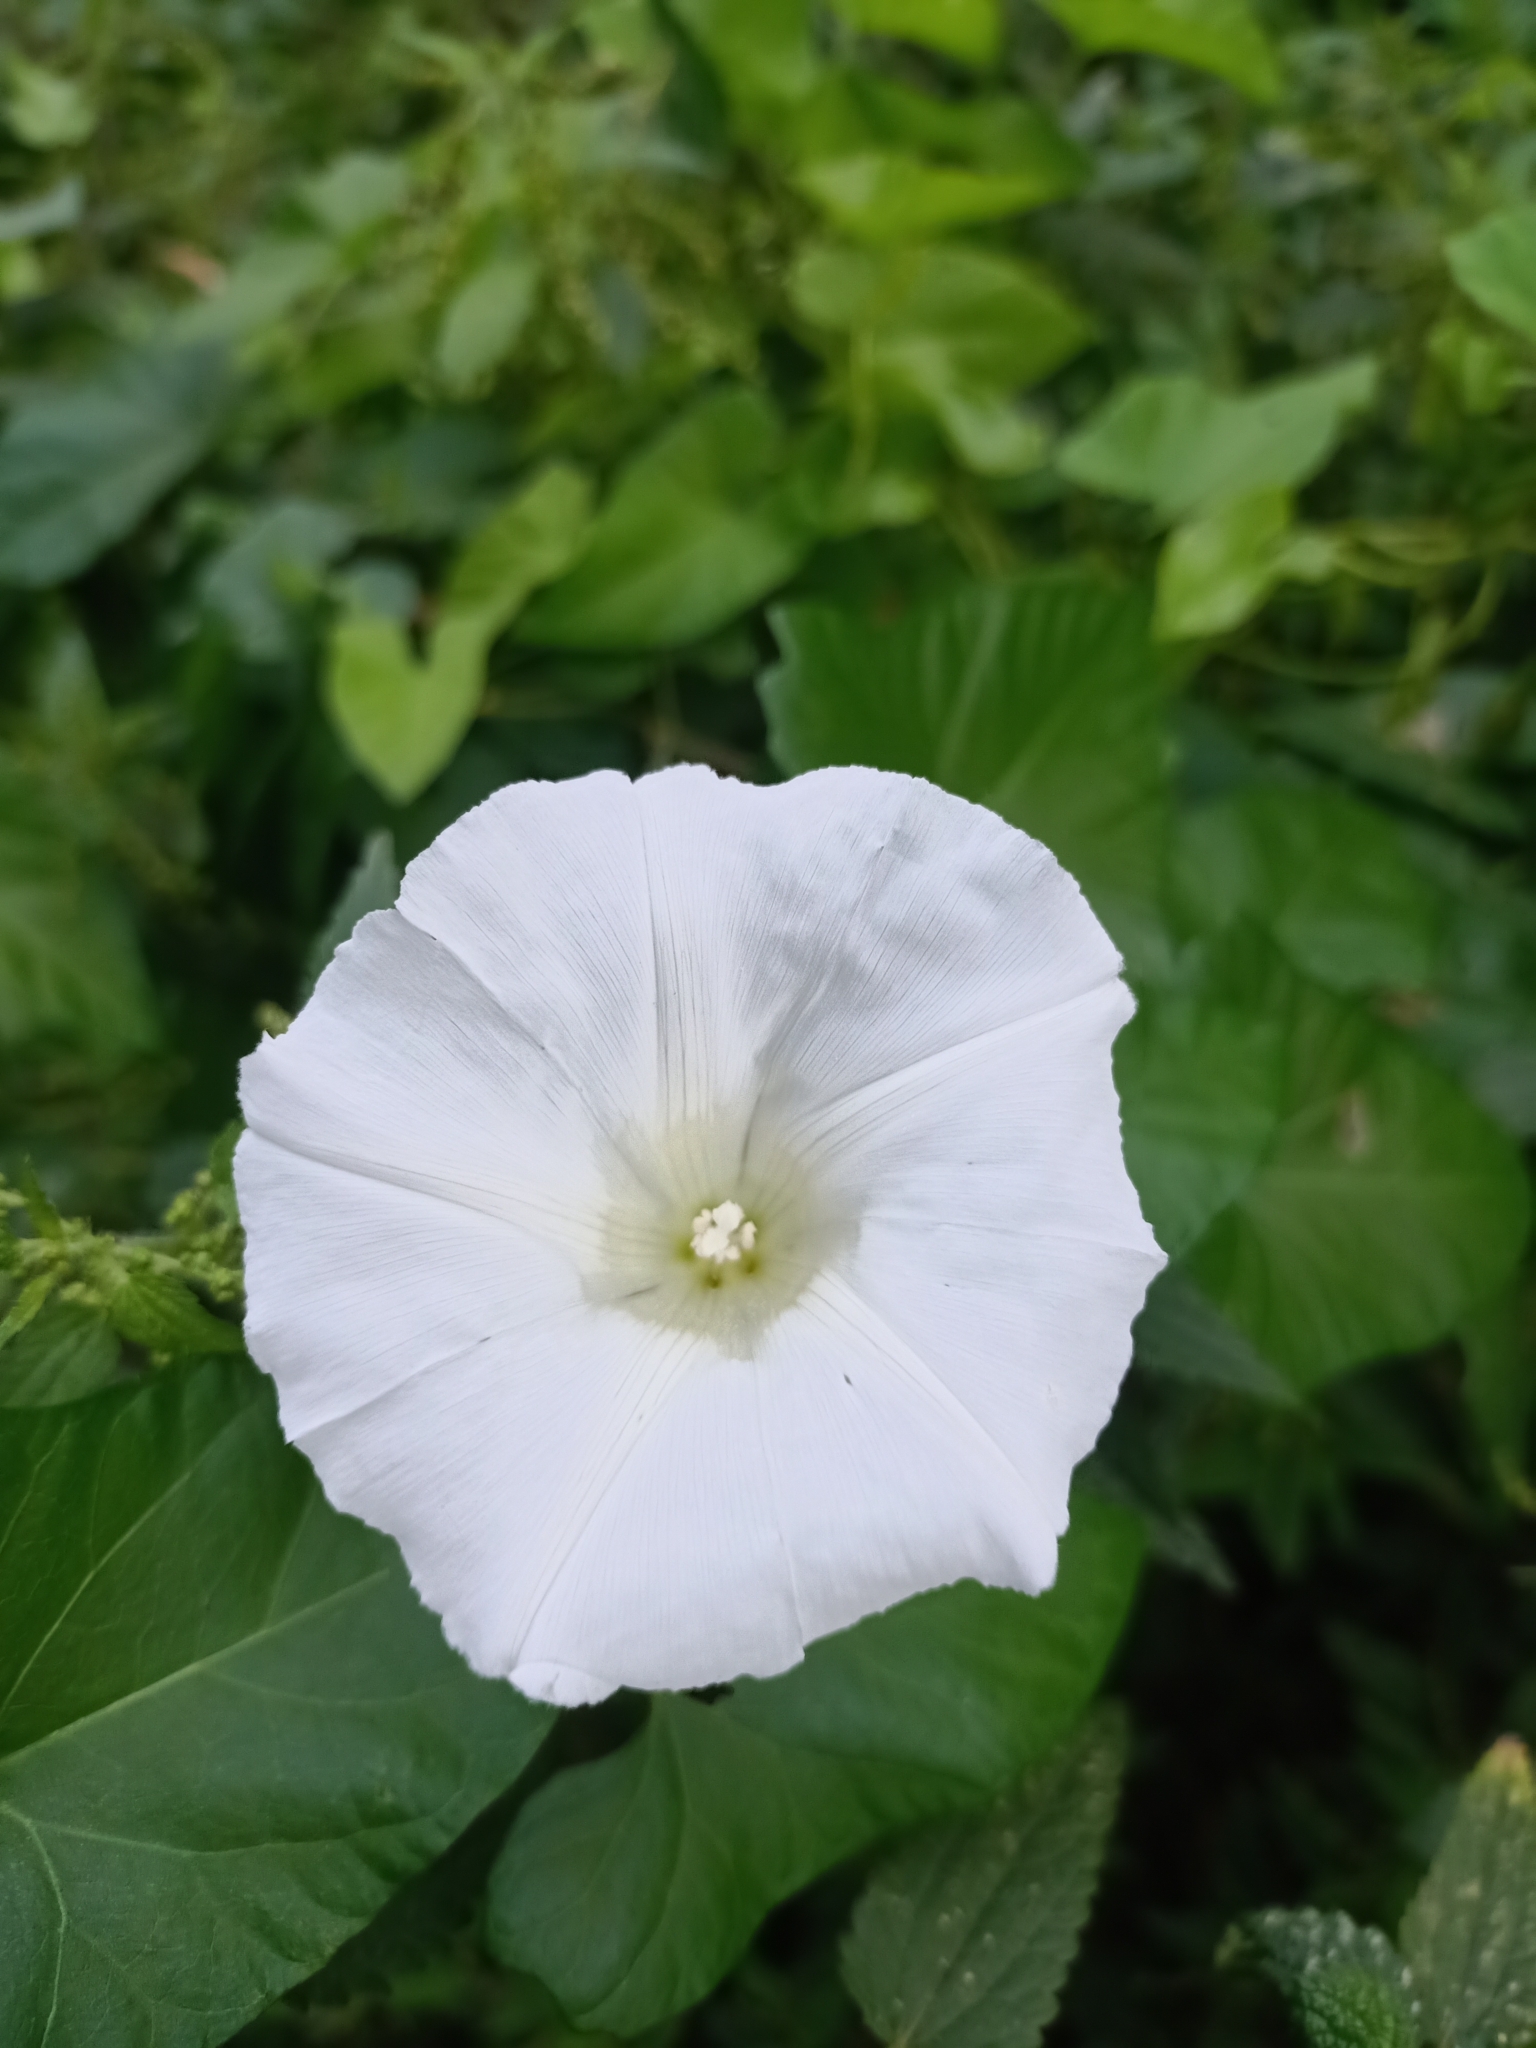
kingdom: Plantae
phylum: Tracheophyta
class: Magnoliopsida
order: Solanales
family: Convolvulaceae
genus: Calystegia
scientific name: Calystegia sepium
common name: Hedge bindweed
